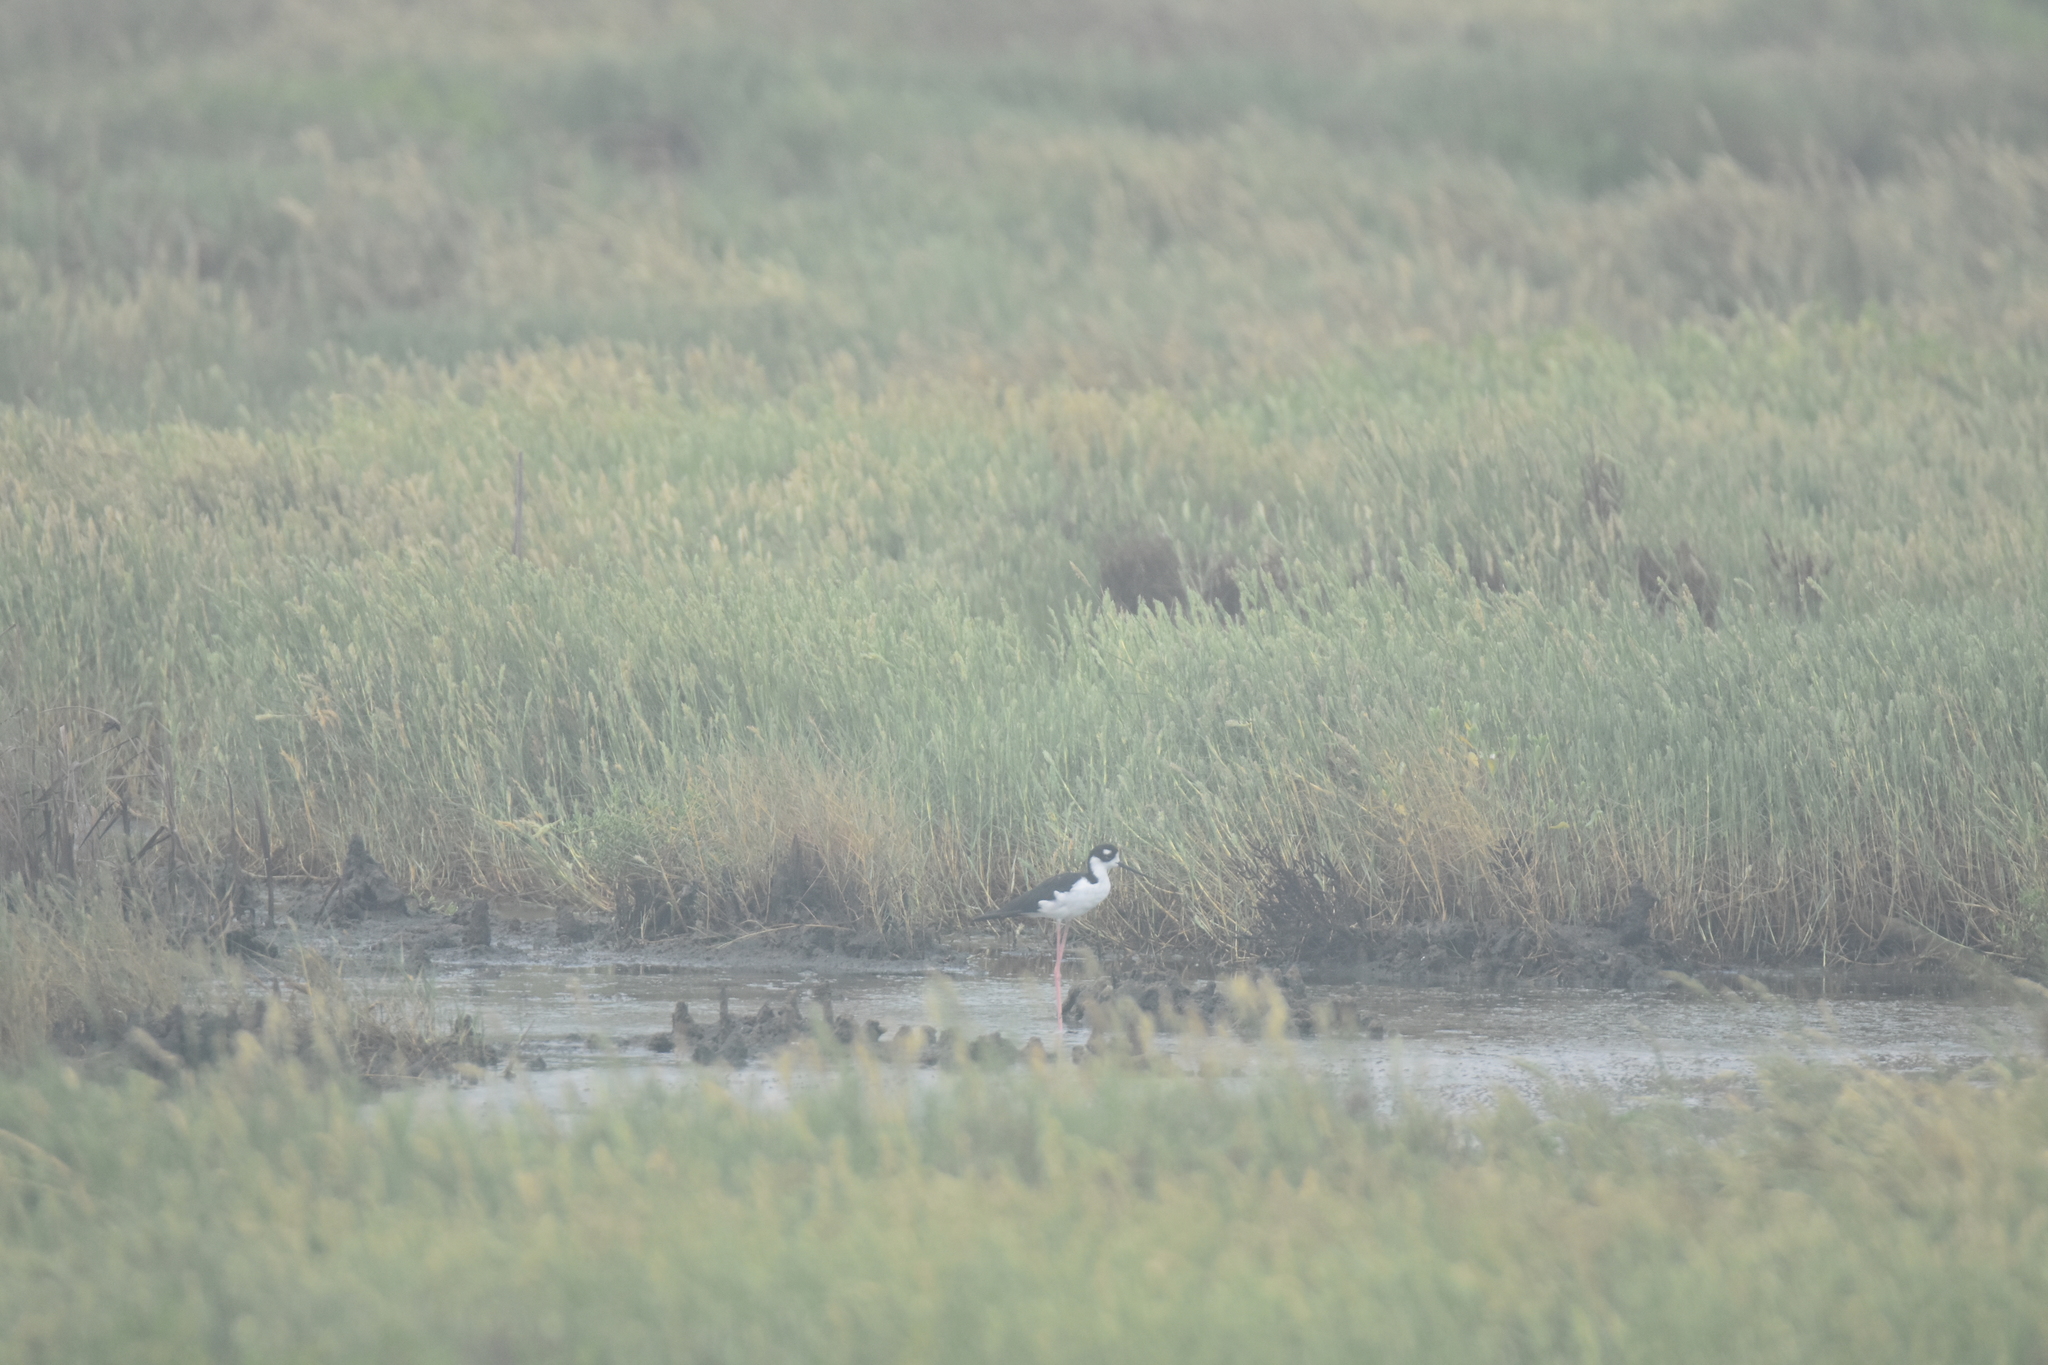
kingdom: Animalia
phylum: Chordata
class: Aves
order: Charadriiformes
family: Recurvirostridae
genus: Himantopus
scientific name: Himantopus mexicanus
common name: Black-necked stilt
